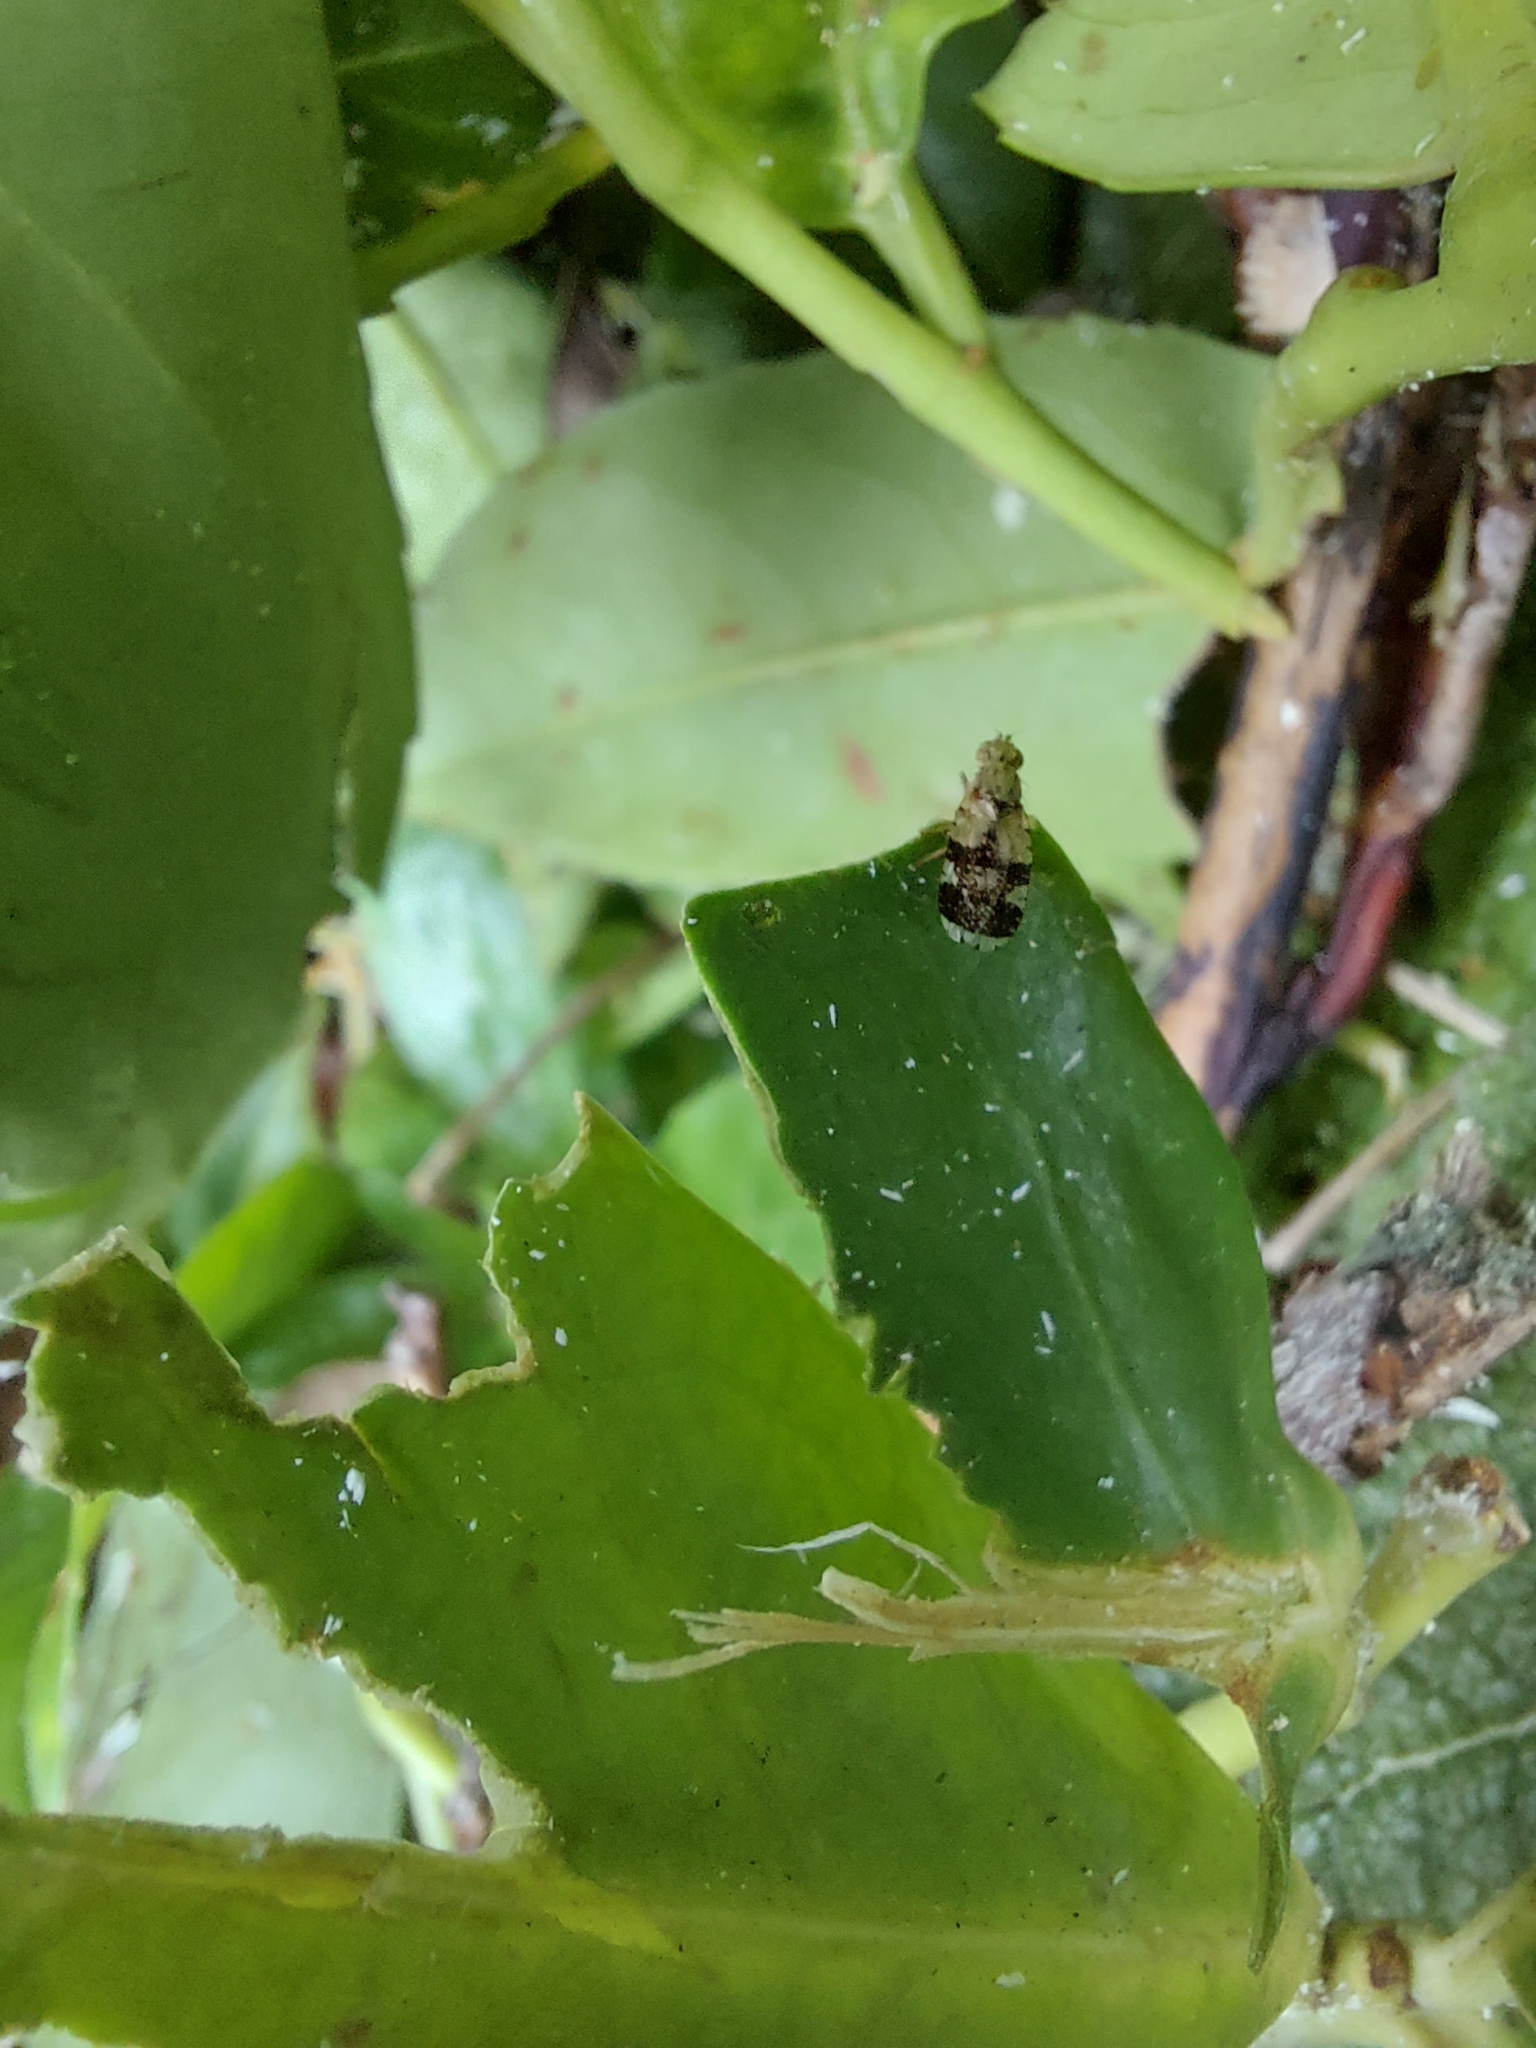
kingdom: Animalia
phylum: Arthropoda
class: Insecta
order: Diptera
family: Tephritidae
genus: Tephritis
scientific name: Tephritis formosa
